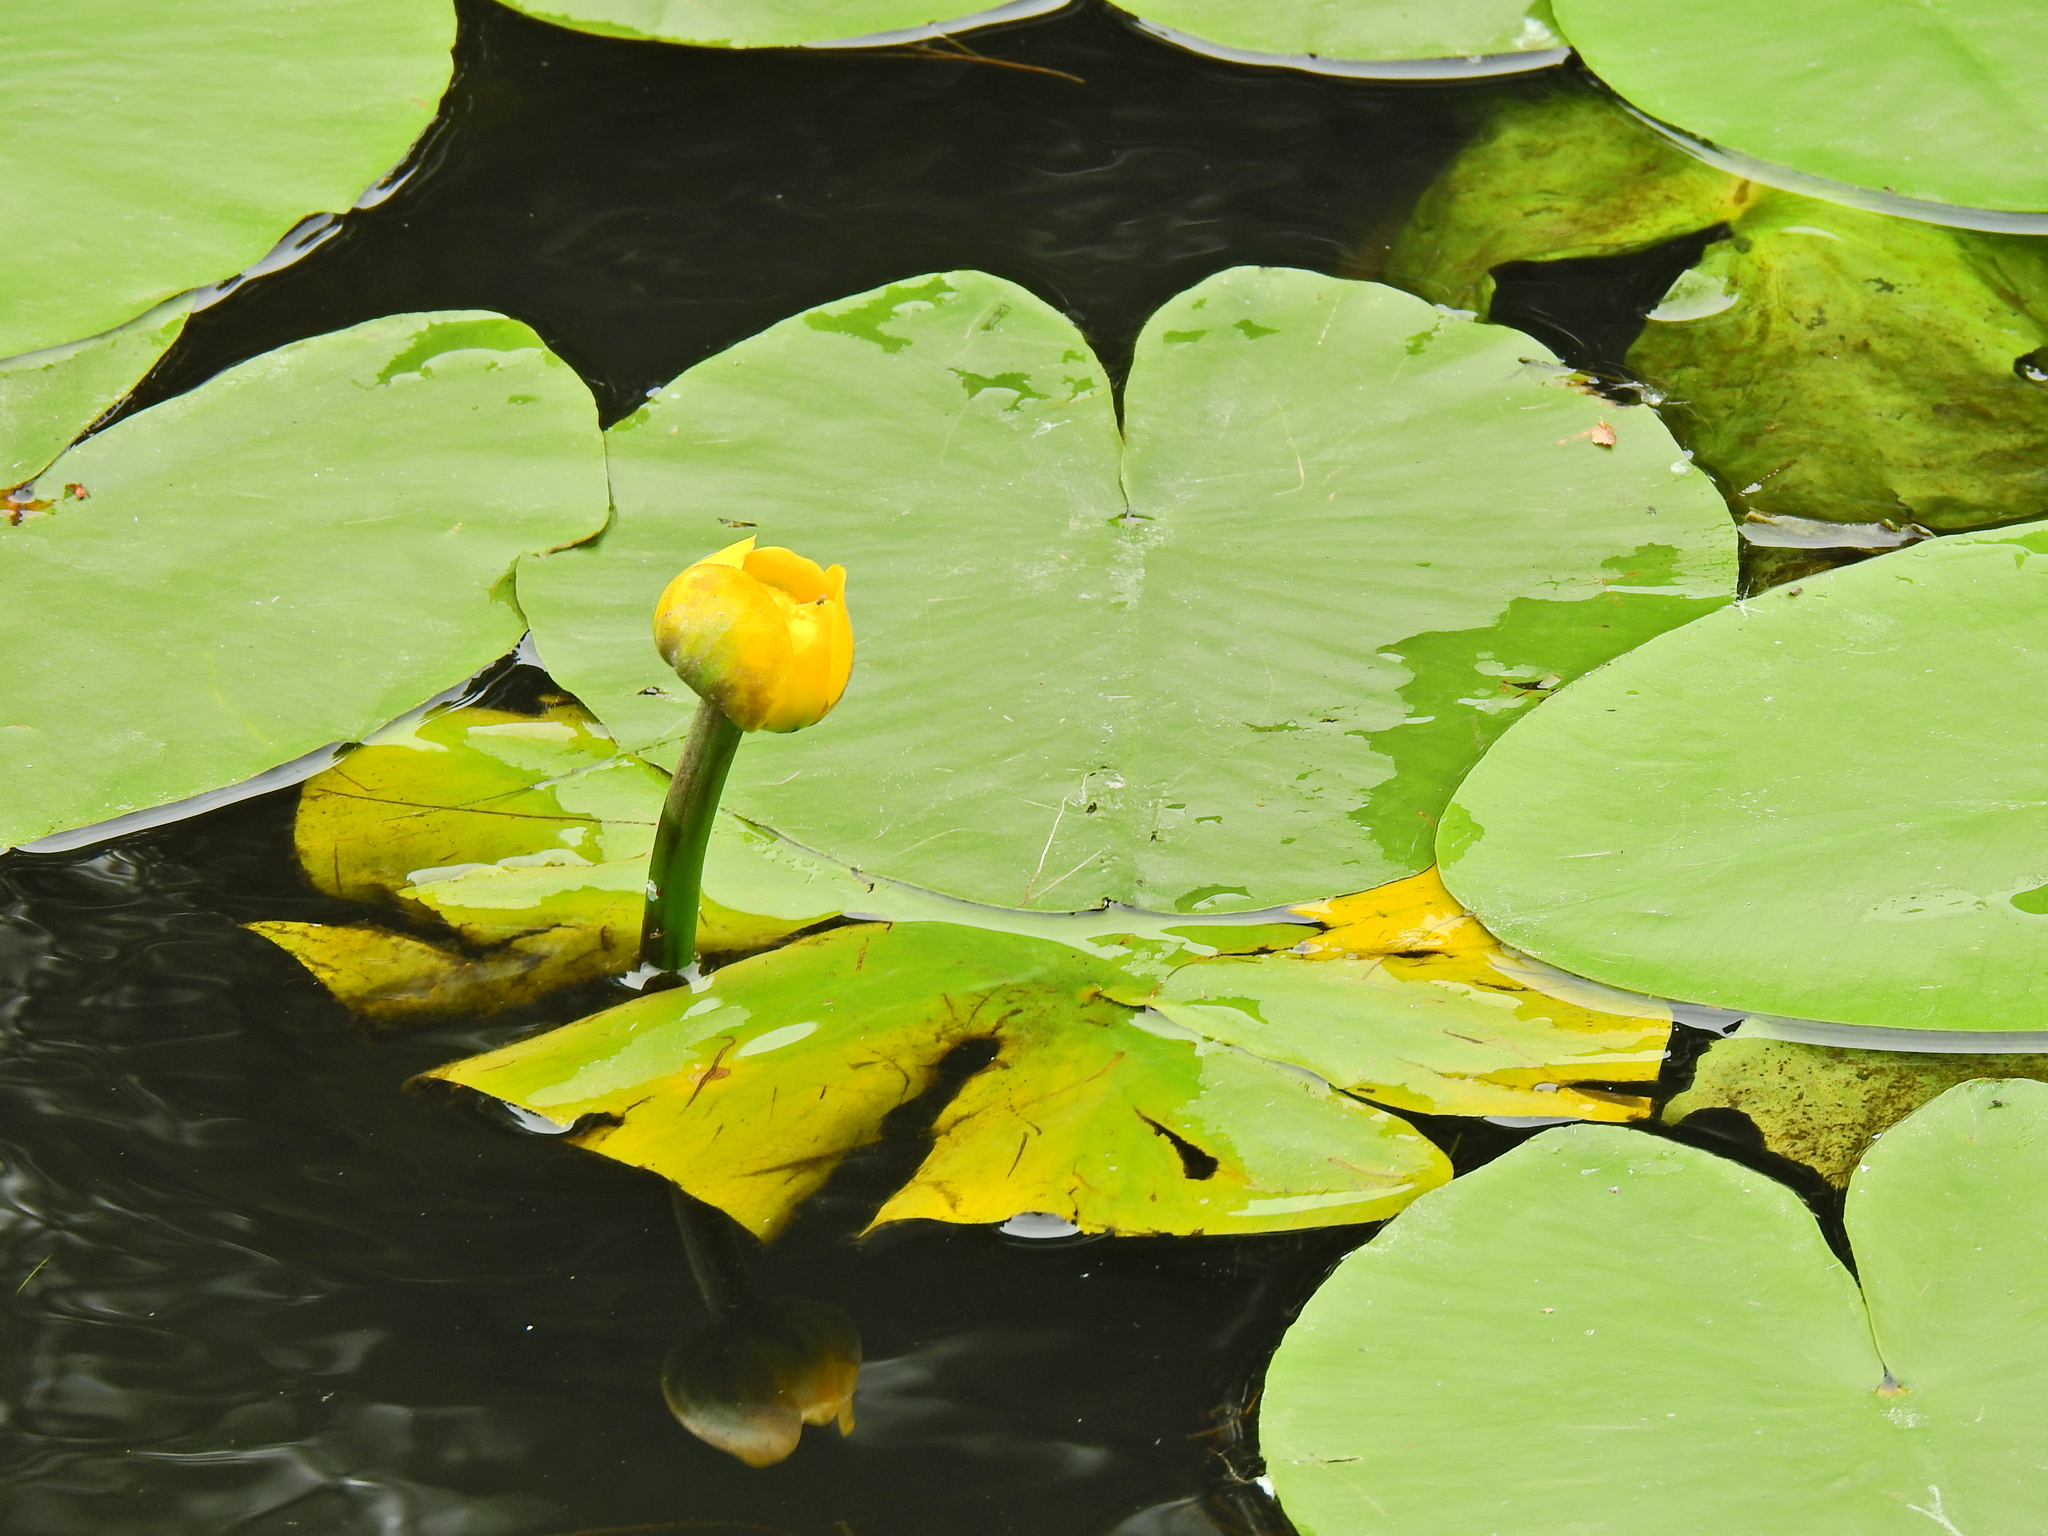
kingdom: Plantae
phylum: Tracheophyta
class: Magnoliopsida
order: Nymphaeales
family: Nymphaeaceae
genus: Nuphar
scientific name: Nuphar lutea
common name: Yellow water-lily
